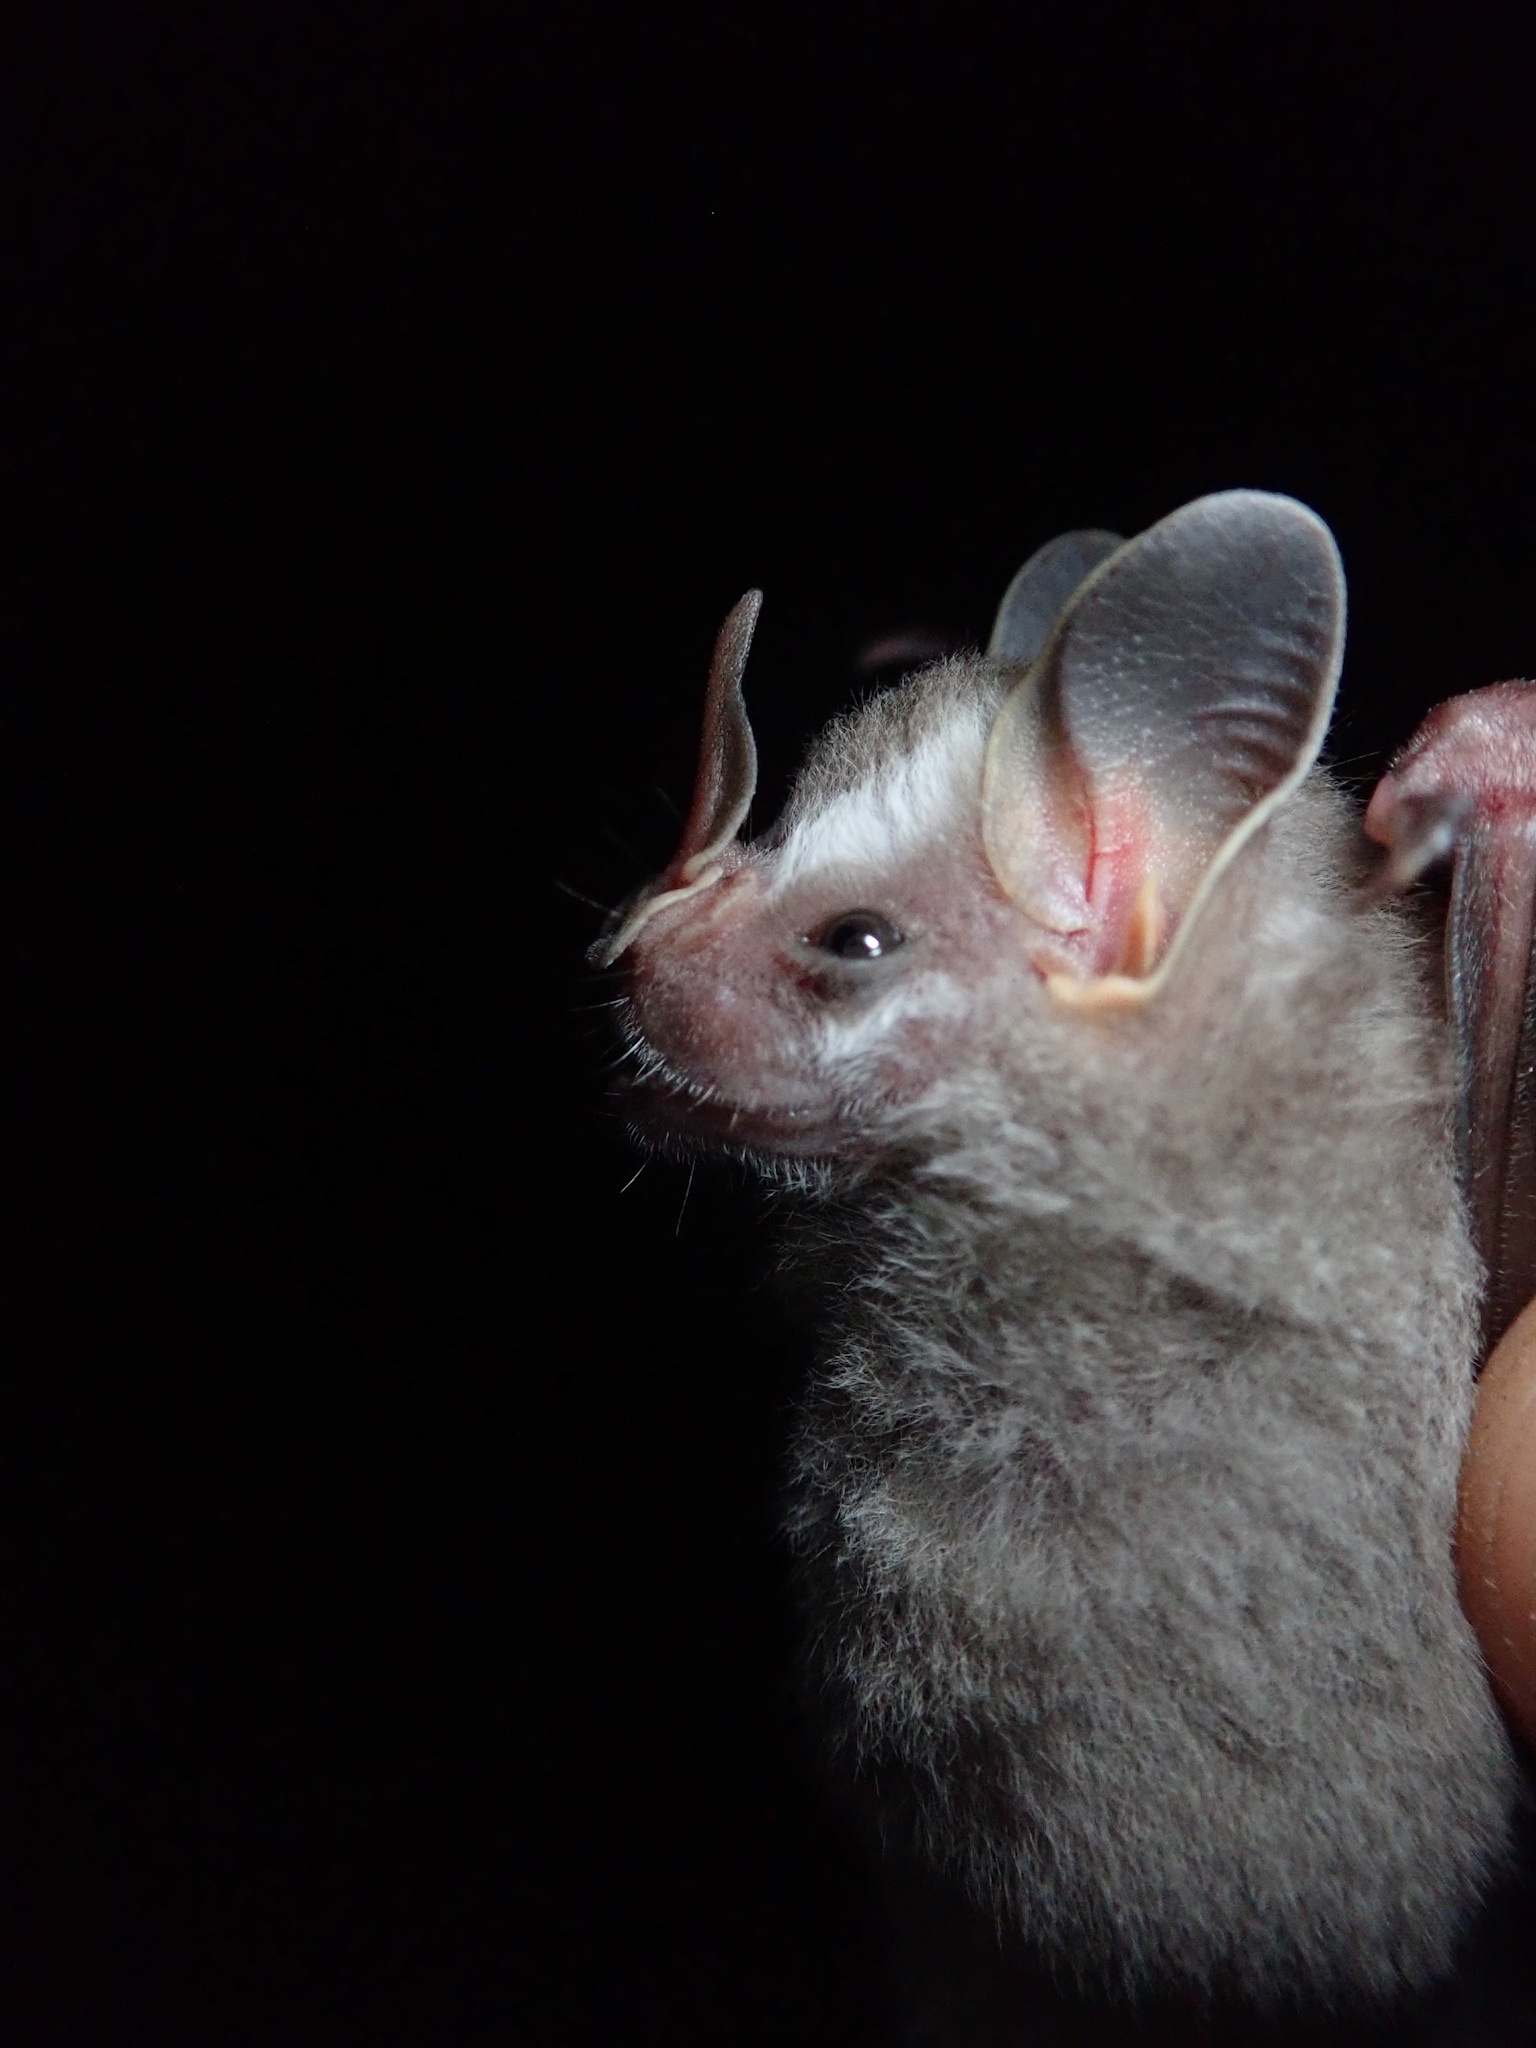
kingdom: Animalia
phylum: Chordata
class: Mammalia
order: Chiroptera
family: Phyllostomidae
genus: Artibeus
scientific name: Artibeus gnomus
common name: Dwarf fruit-eating bat
